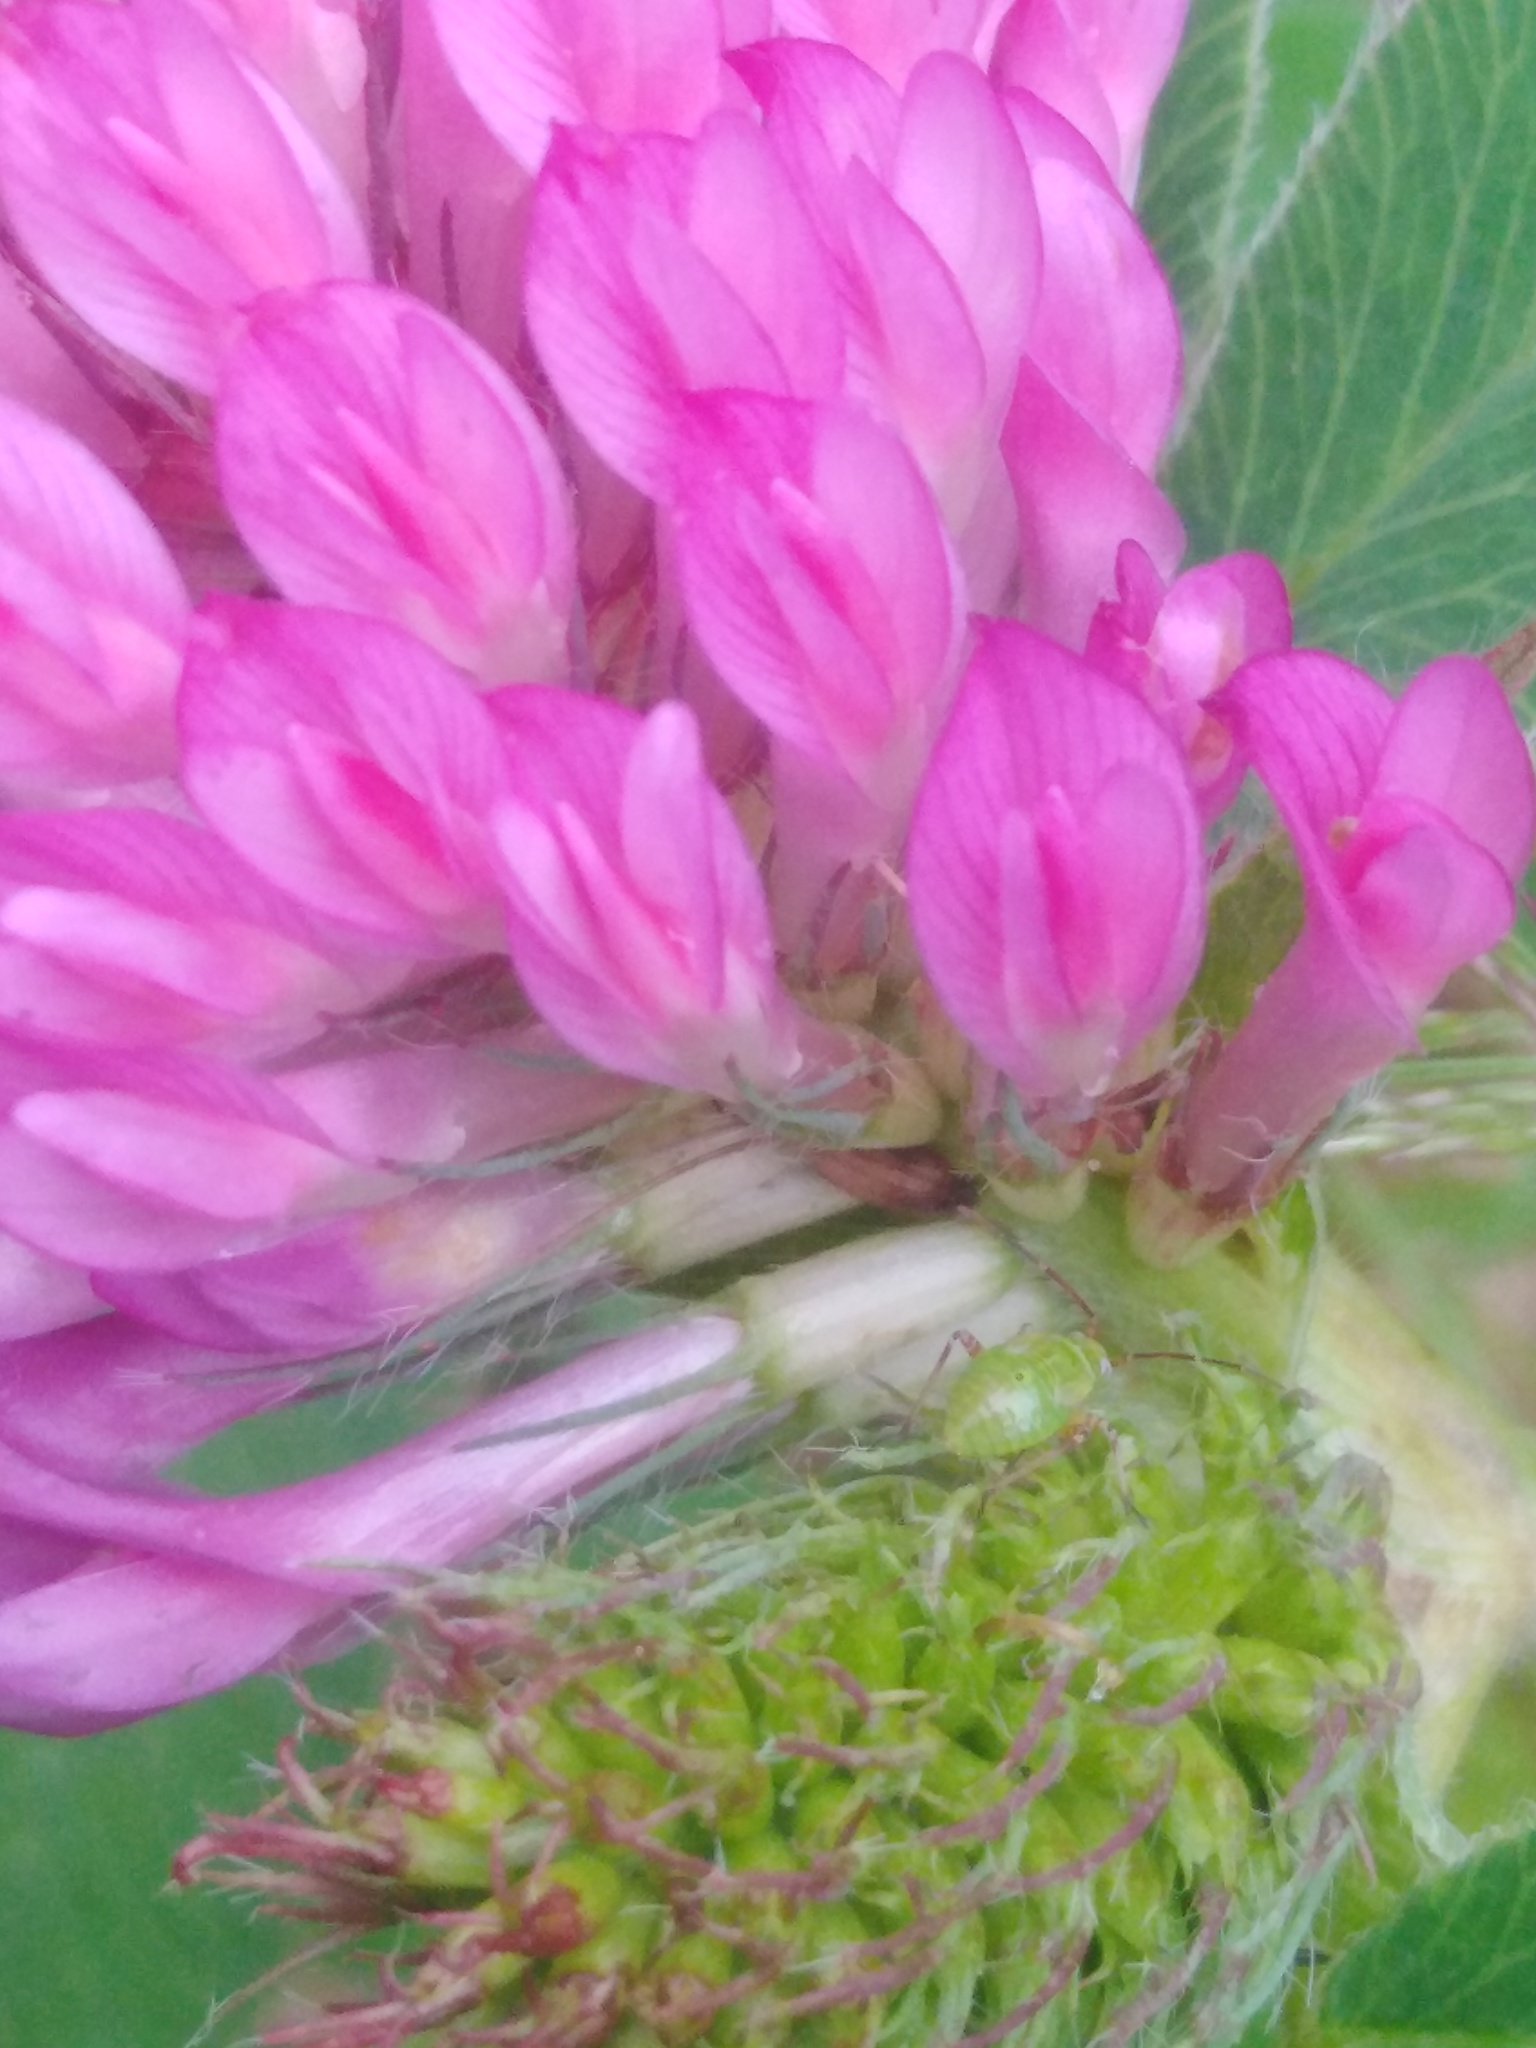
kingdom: Plantae
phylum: Tracheophyta
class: Magnoliopsida
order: Fabales
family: Fabaceae
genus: Trifolium
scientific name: Trifolium medium
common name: Zigzag clover
